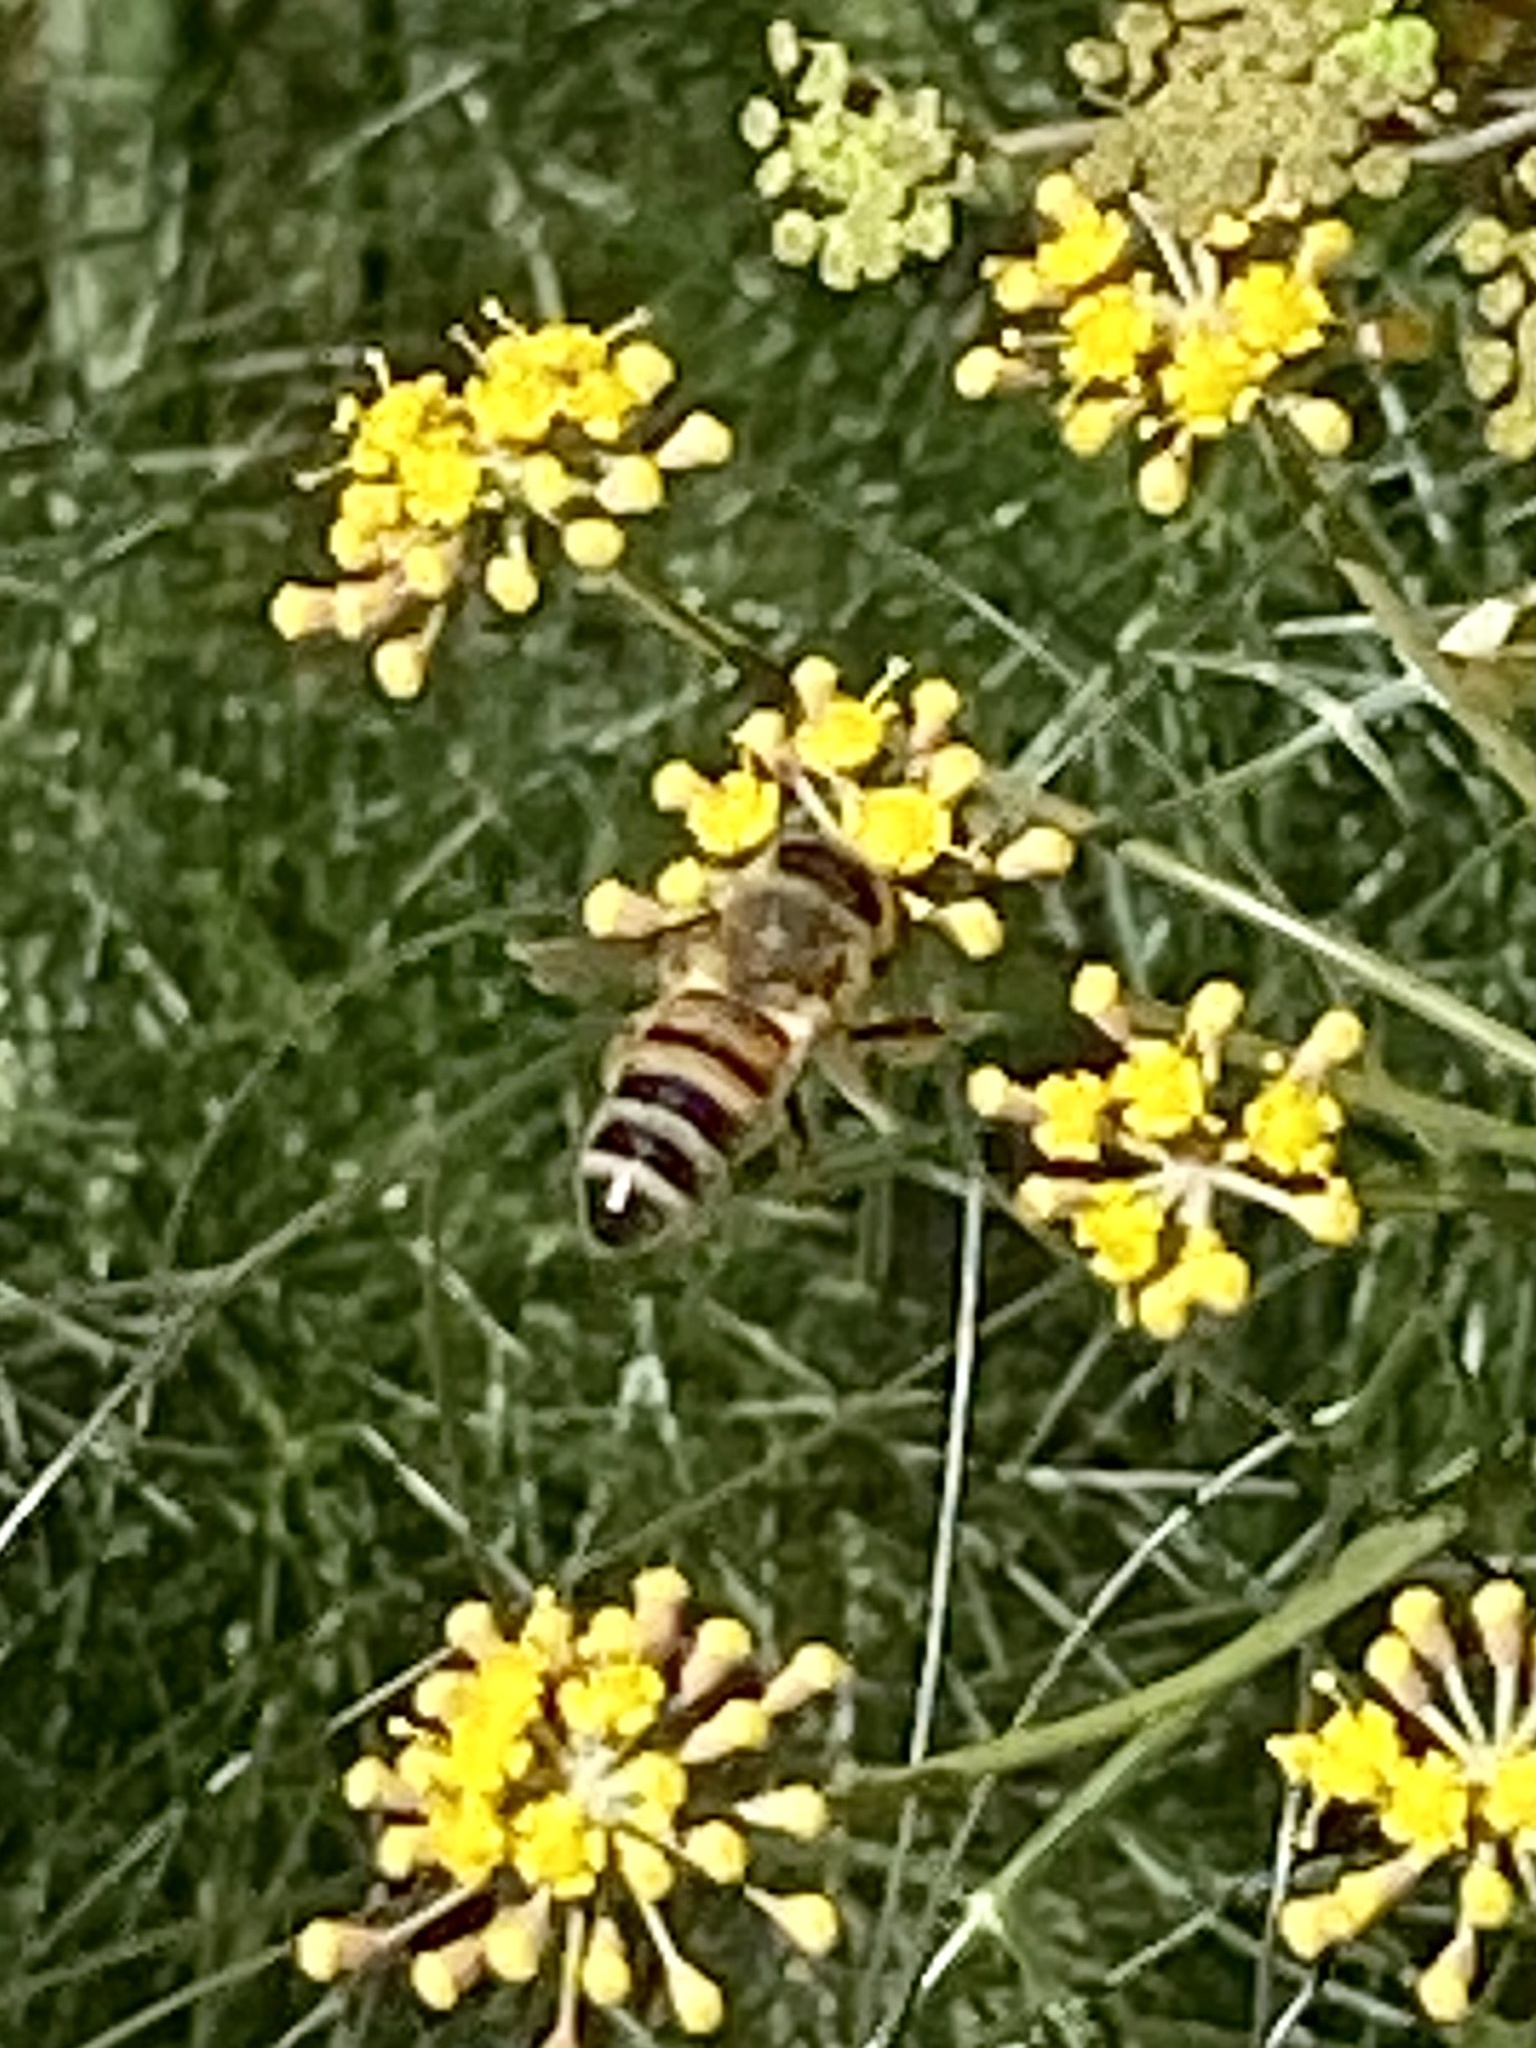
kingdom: Animalia
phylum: Arthropoda
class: Insecta
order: Hymenoptera
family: Apidae
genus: Apis
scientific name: Apis mellifera
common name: Honey bee
